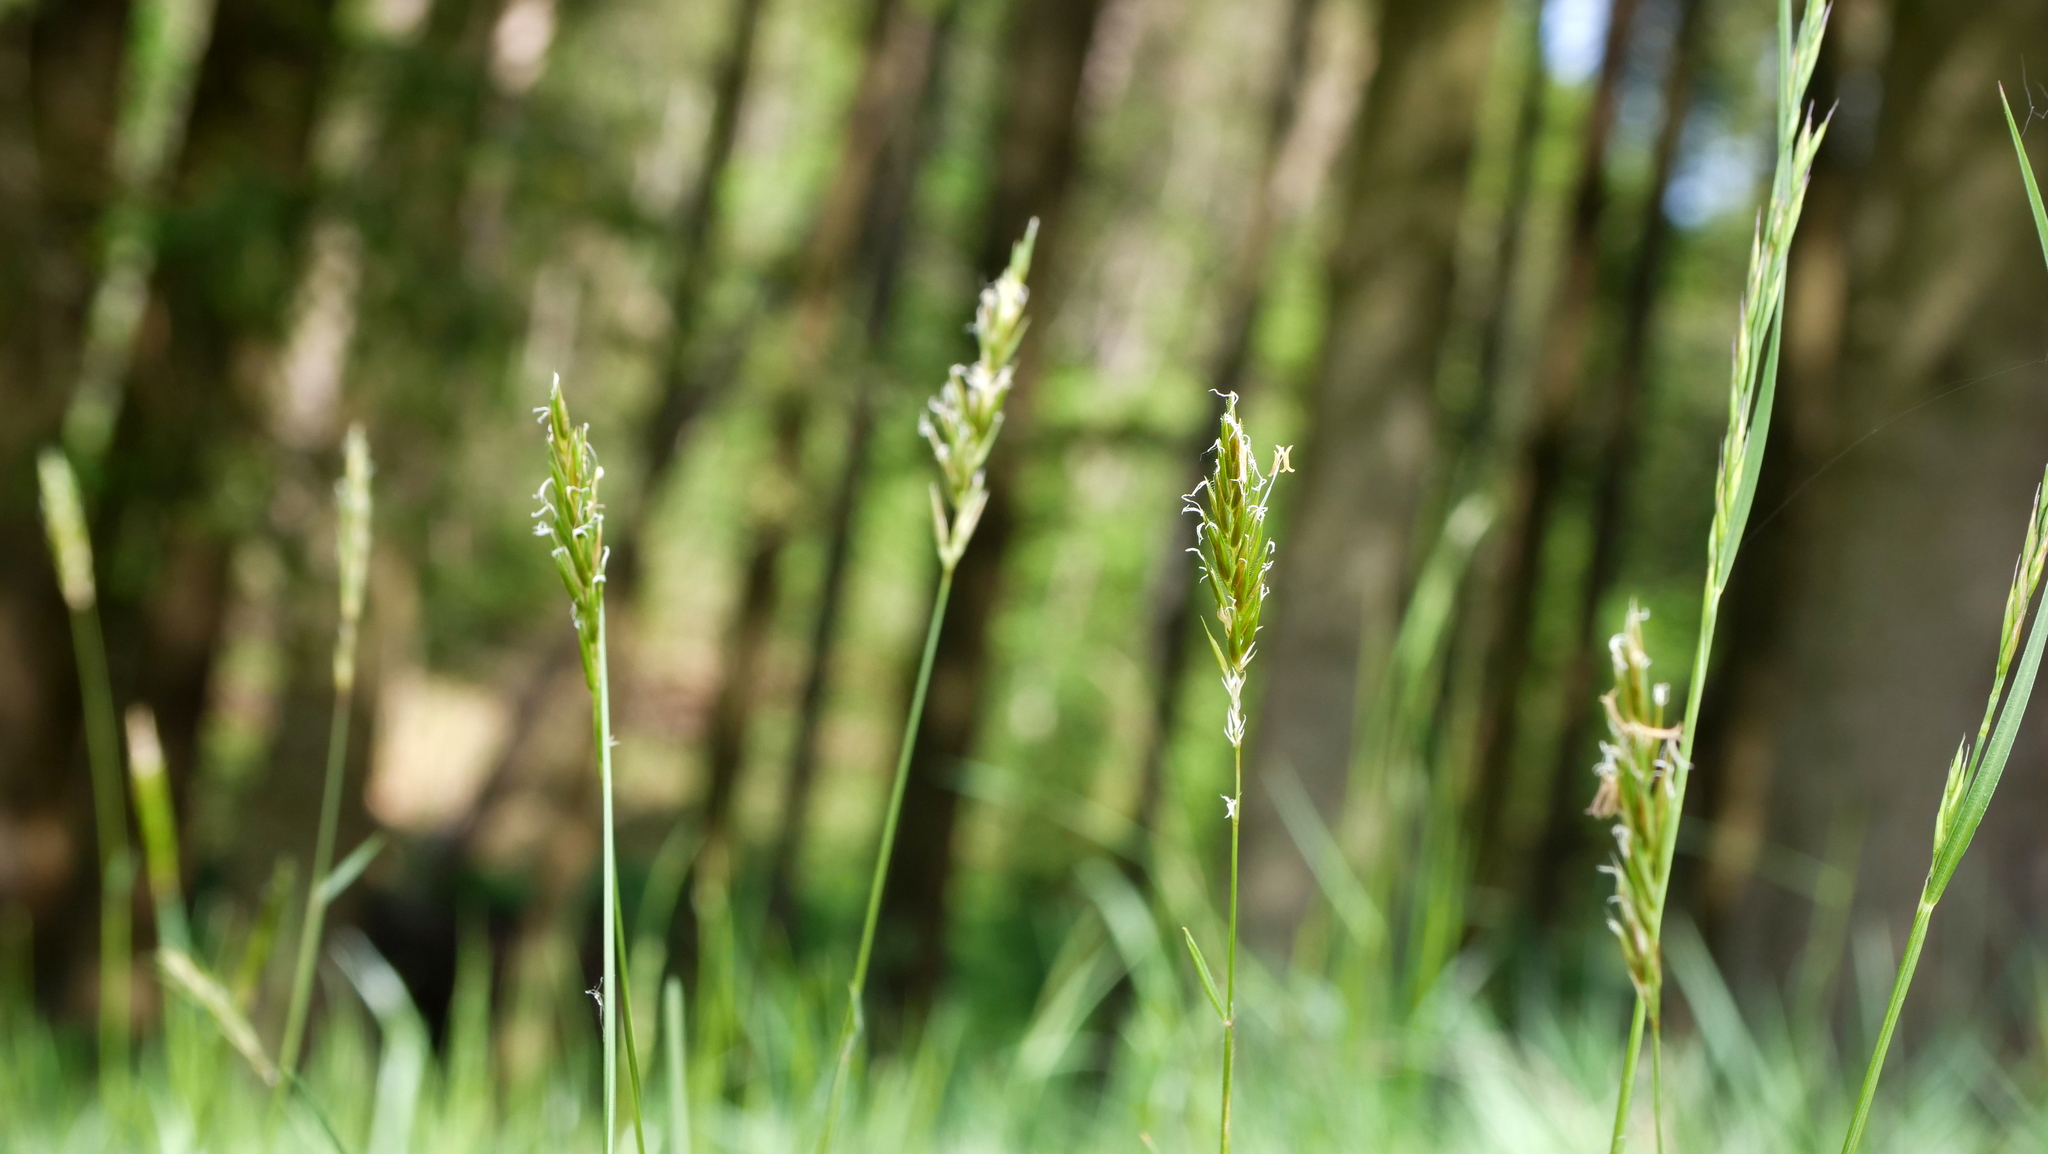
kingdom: Plantae
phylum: Tracheophyta
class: Liliopsida
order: Poales
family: Poaceae
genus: Anthoxanthum
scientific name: Anthoxanthum odoratum
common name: Sweet vernalgrass
